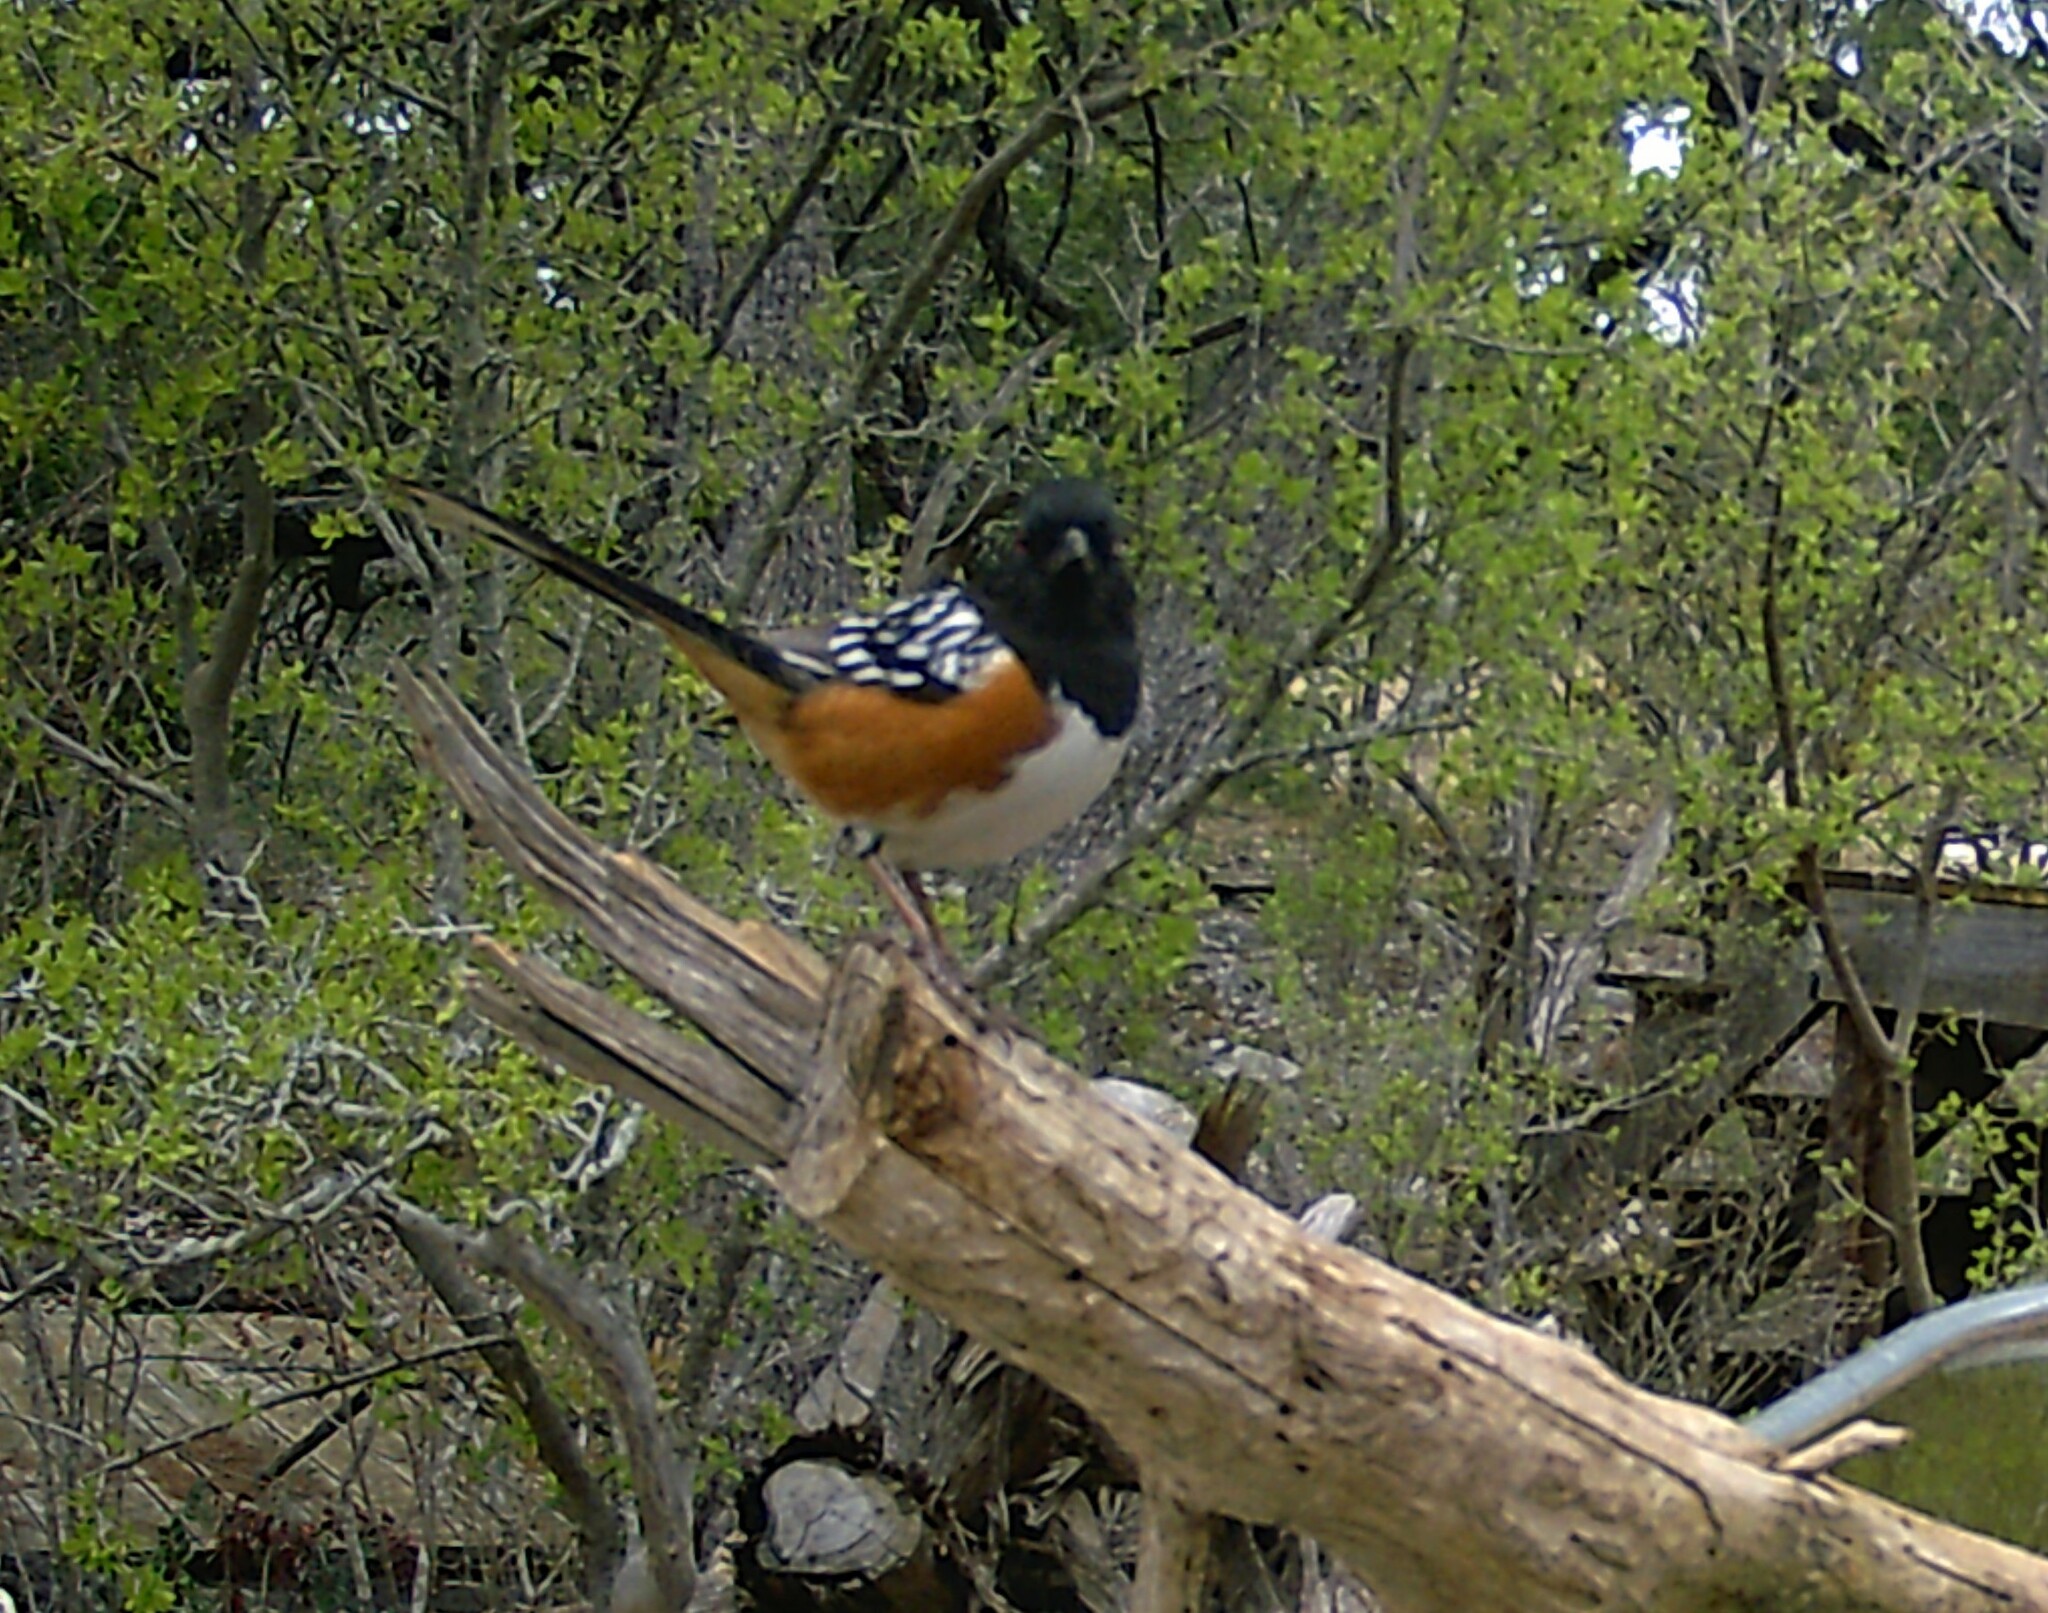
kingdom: Animalia
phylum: Chordata
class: Aves
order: Passeriformes
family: Passerellidae
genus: Pipilo
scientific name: Pipilo maculatus
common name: Spotted towhee
